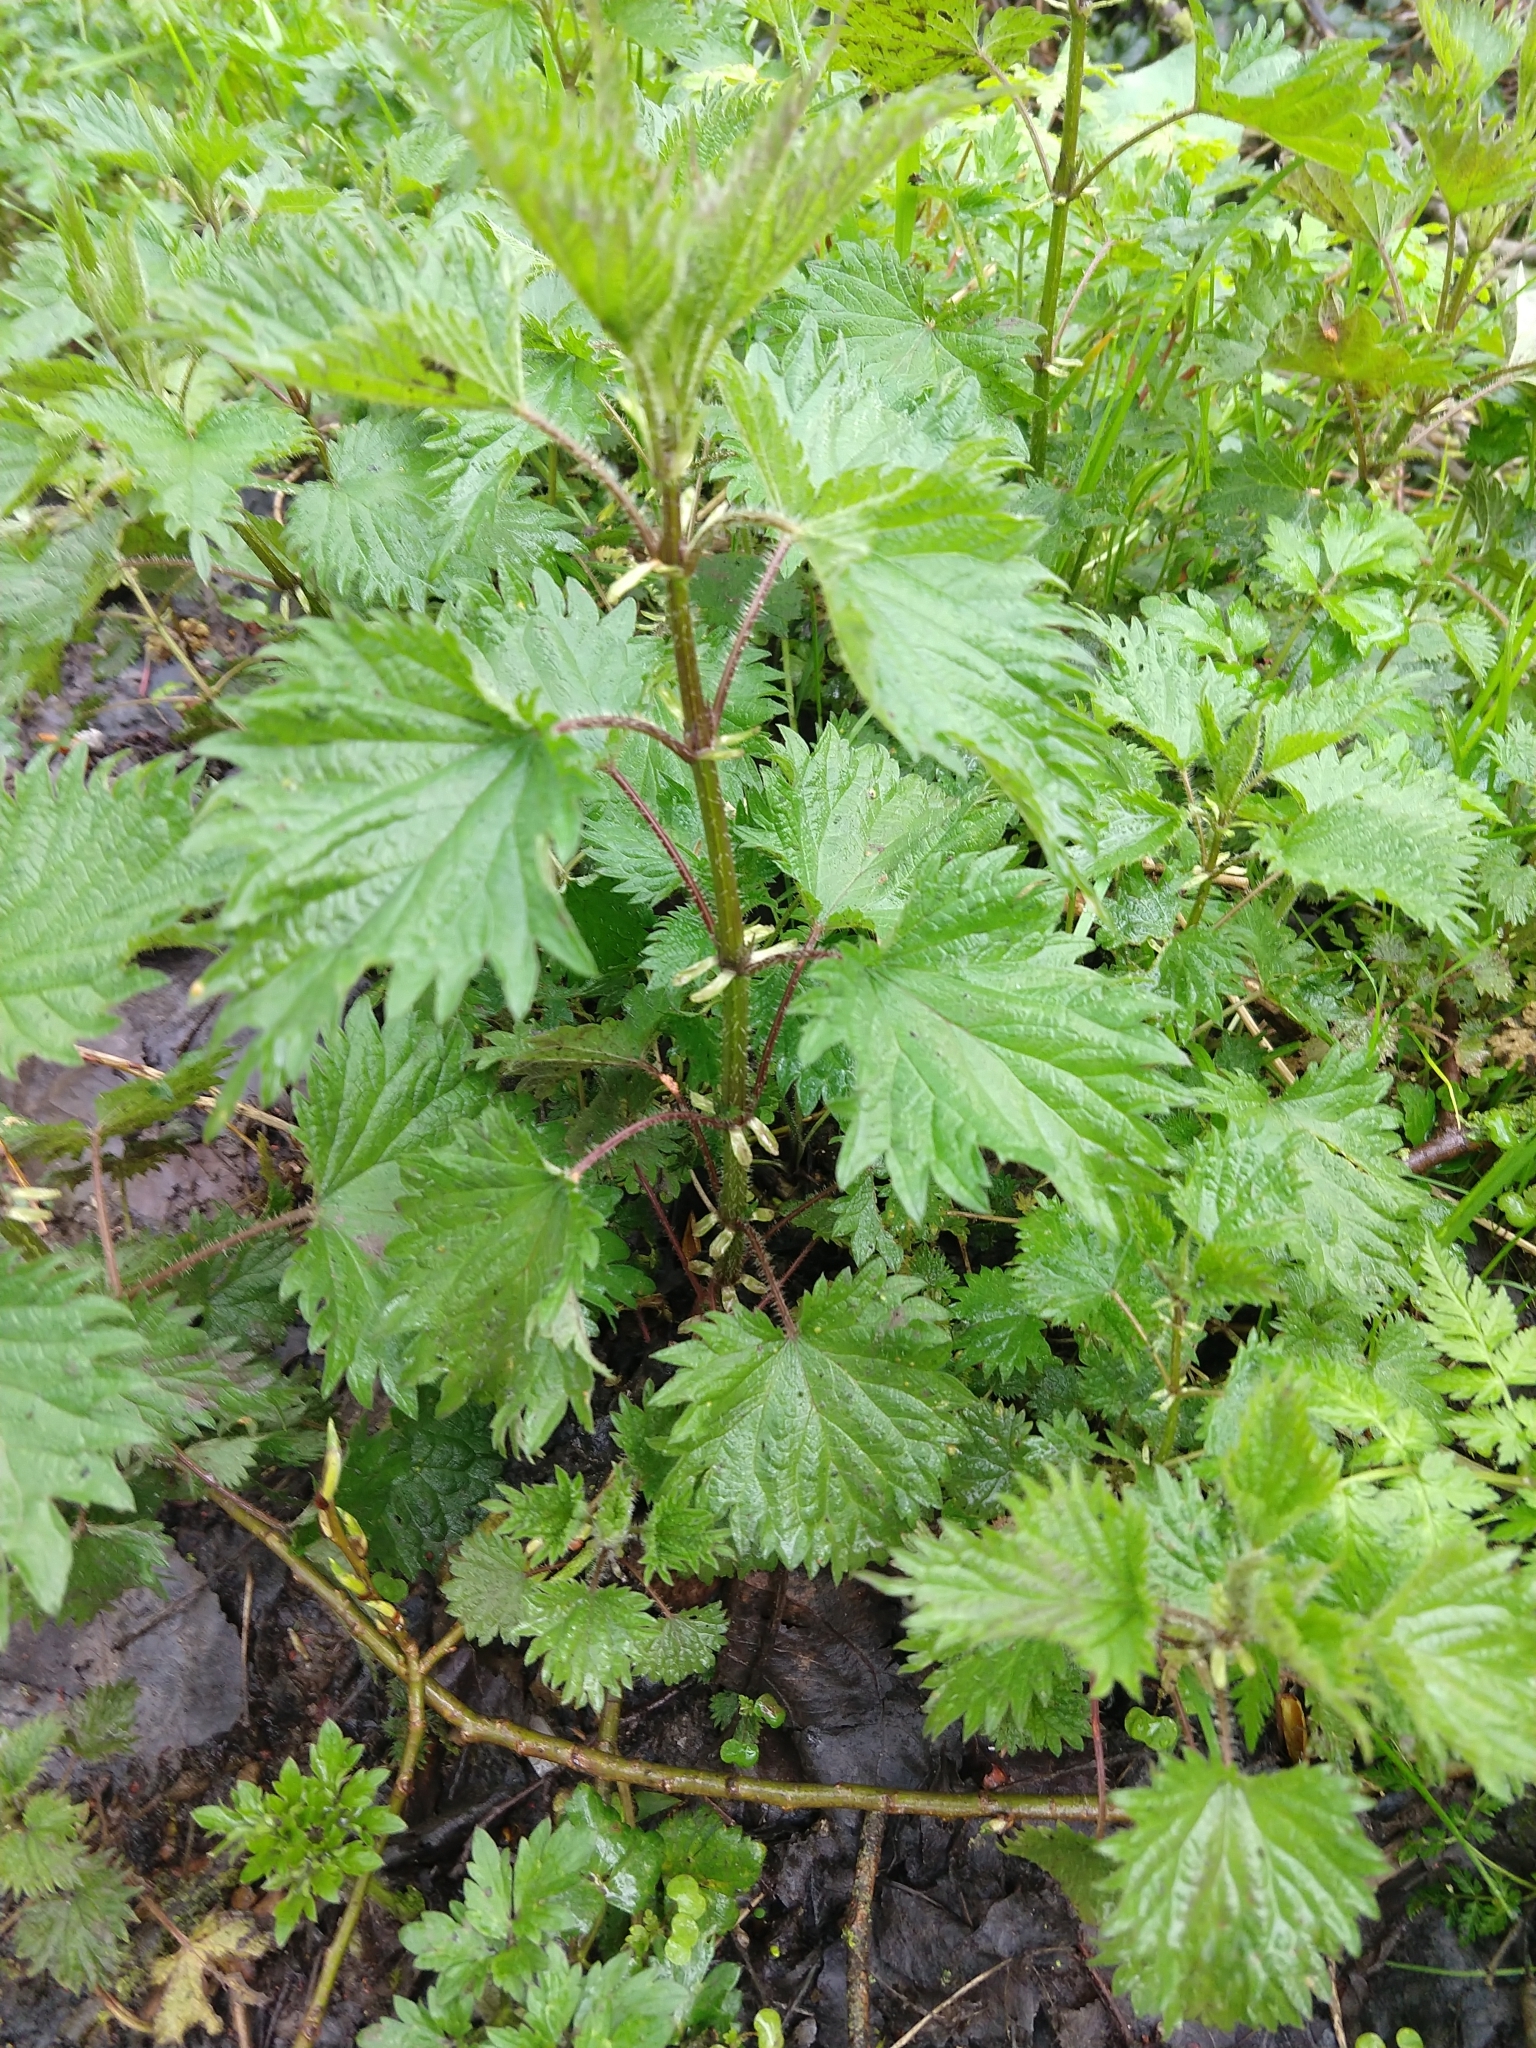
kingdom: Plantae
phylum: Tracheophyta
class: Magnoliopsida
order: Rosales
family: Urticaceae
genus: Urtica
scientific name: Urtica dioica
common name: Common nettle
